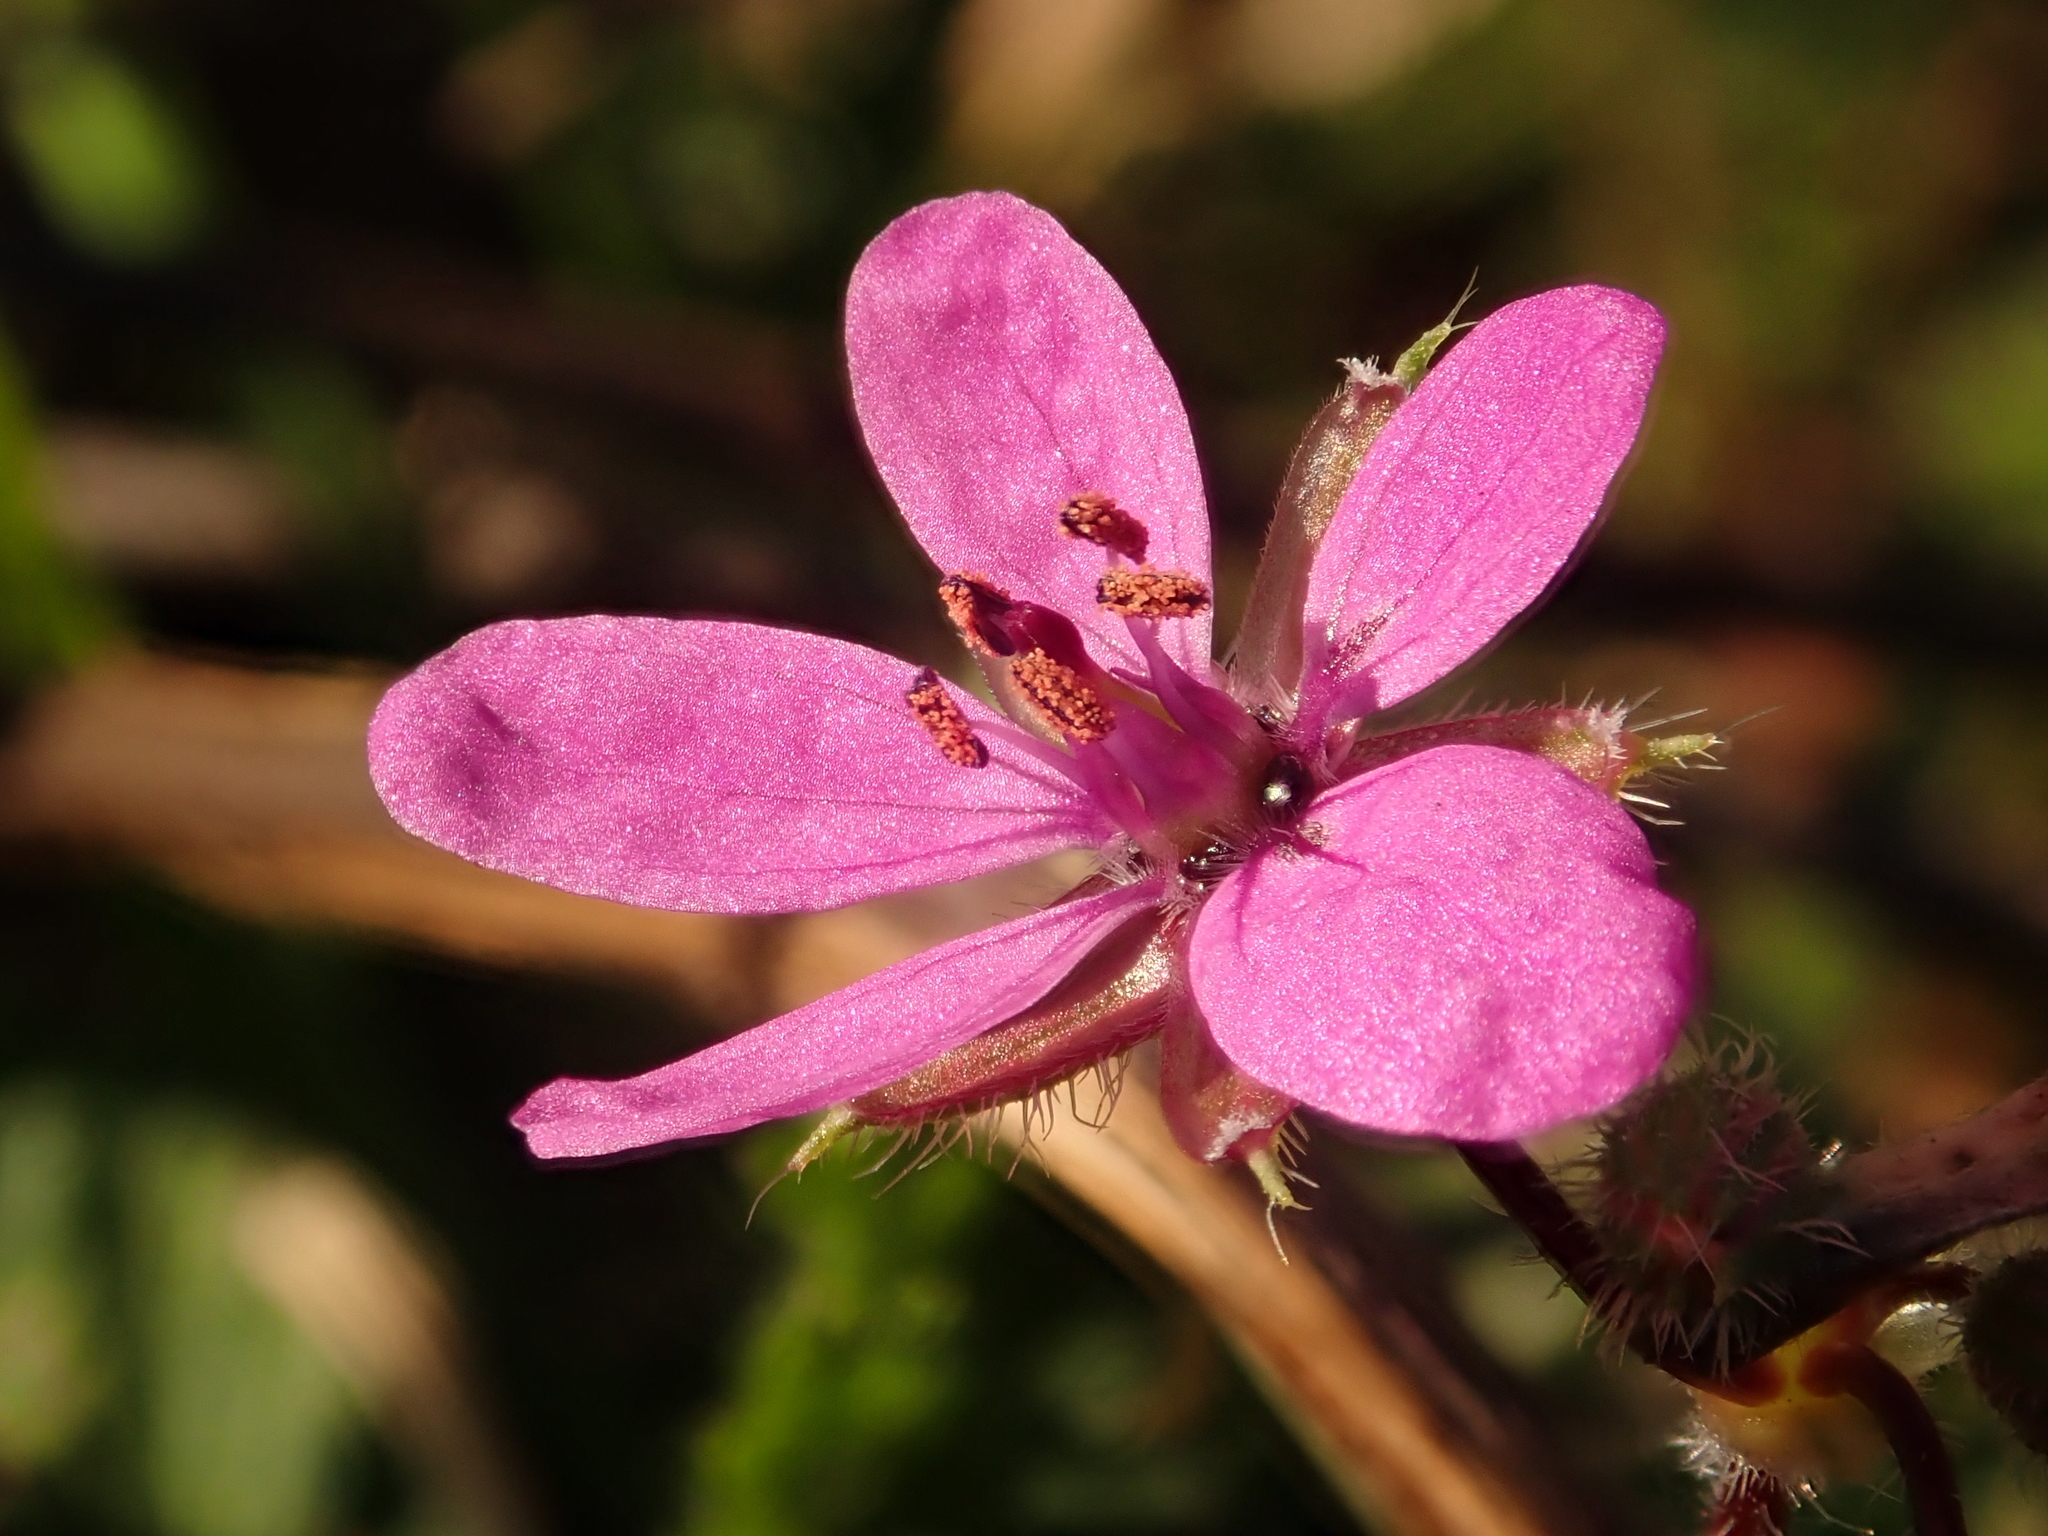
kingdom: Plantae
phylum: Tracheophyta
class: Magnoliopsida
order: Geraniales
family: Geraniaceae
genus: Erodium
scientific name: Erodium cicutarium
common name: Common stork's-bill
